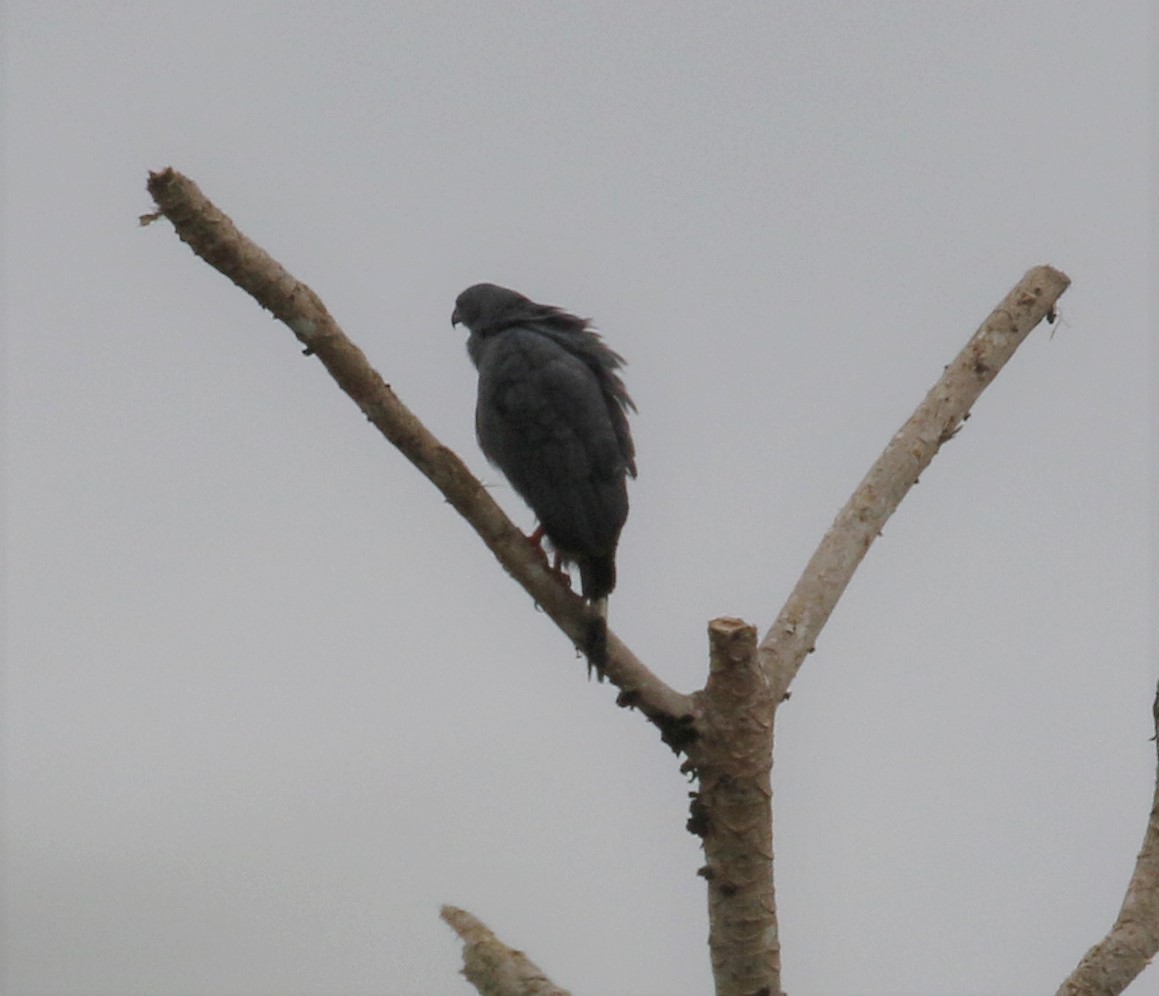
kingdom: Animalia
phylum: Chordata
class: Aves
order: Accipitriformes
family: Accipitridae
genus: Geranospiza
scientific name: Geranospiza caerulescens
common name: Crane hawk
